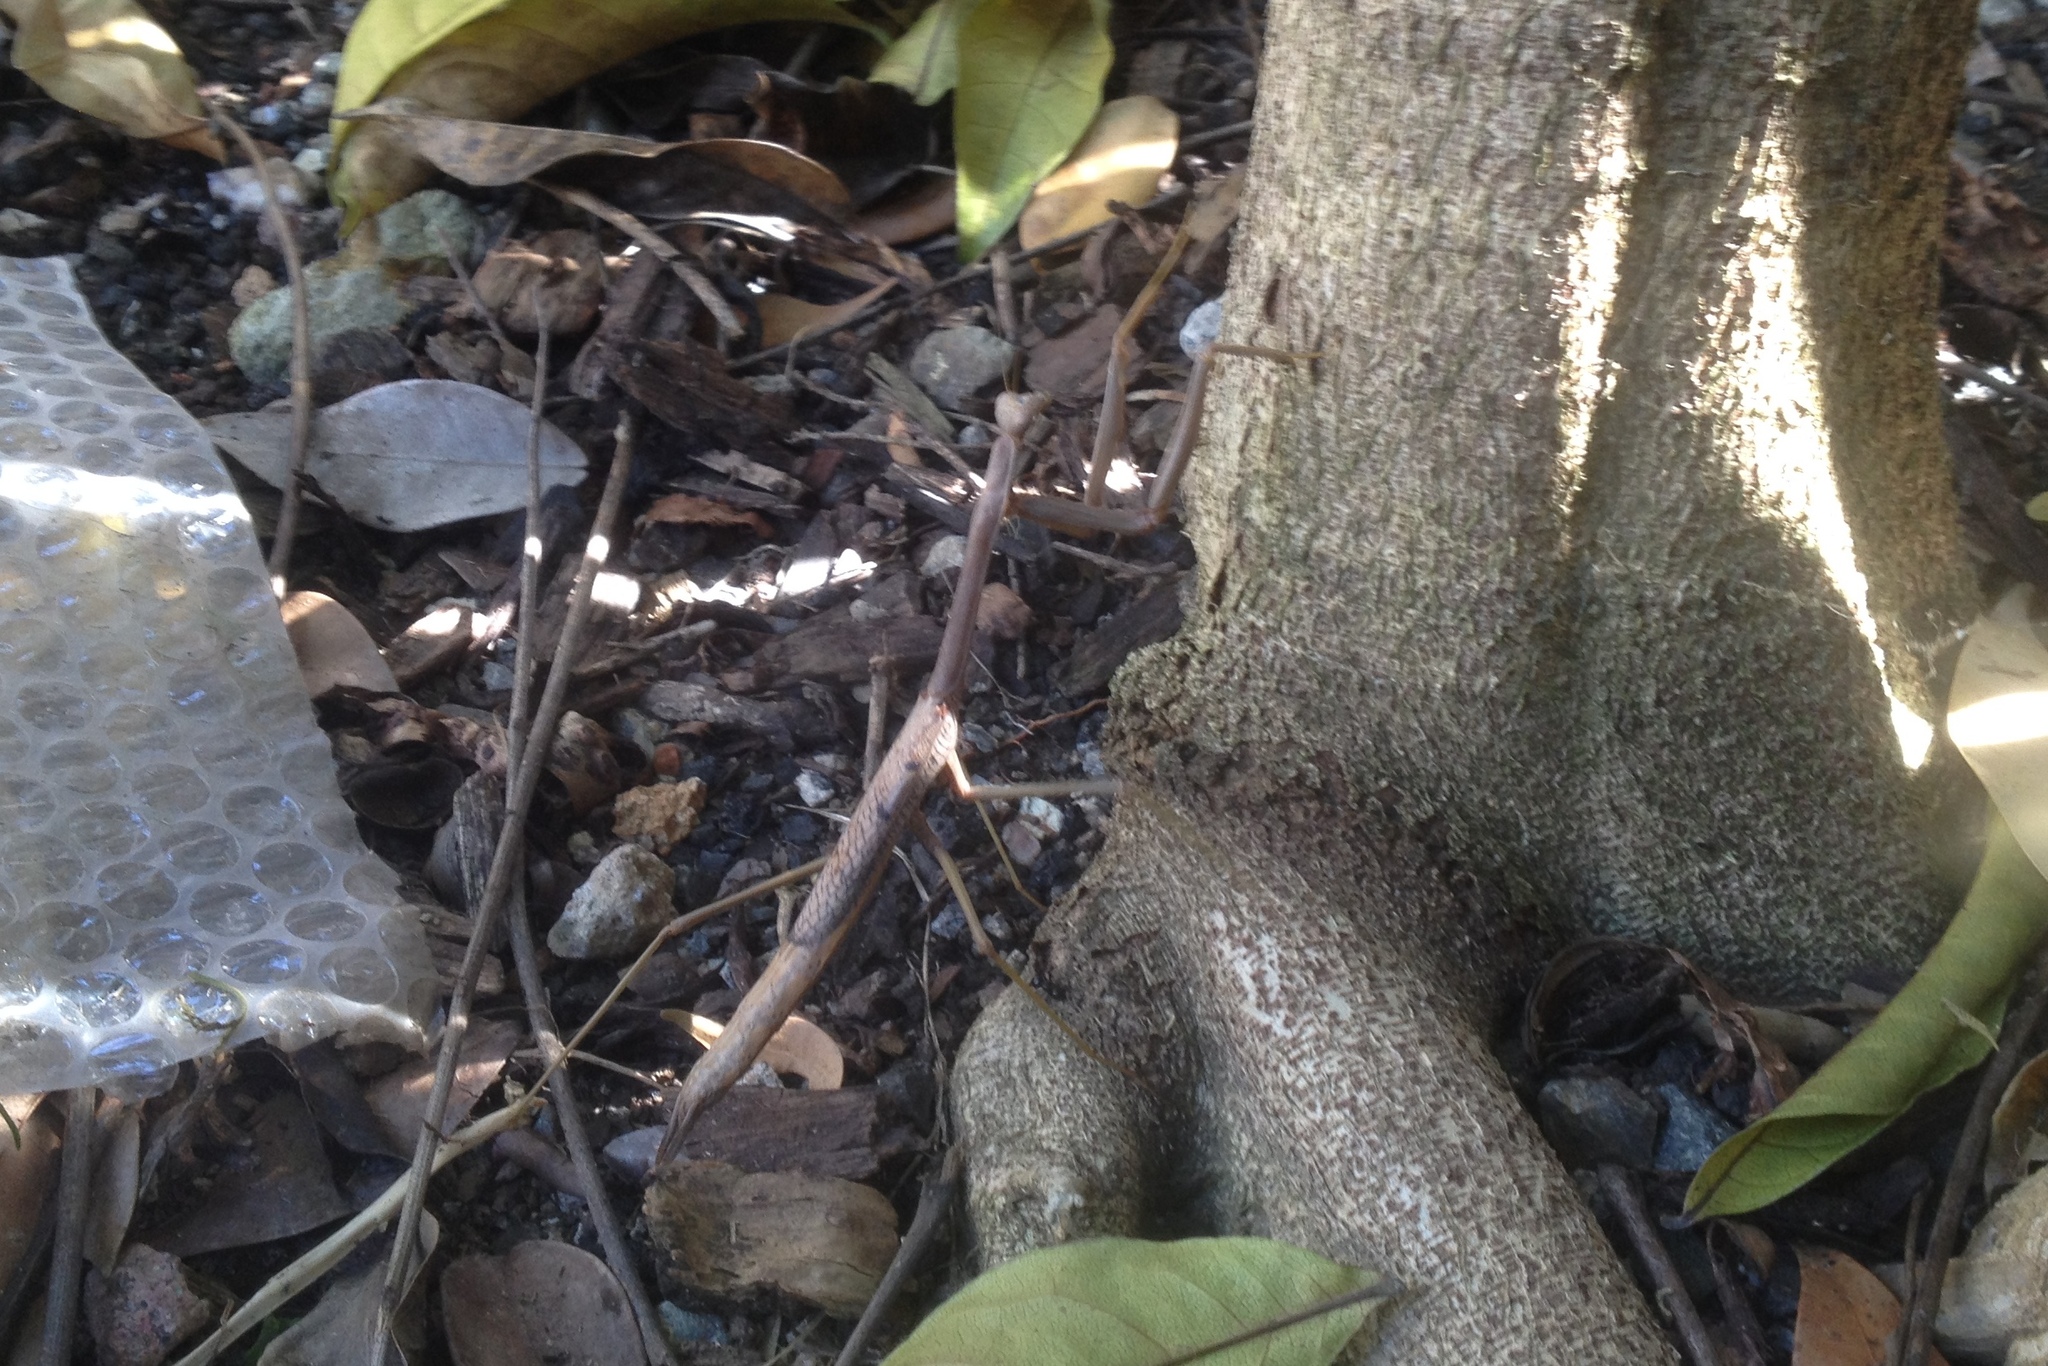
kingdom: Animalia
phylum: Arthropoda
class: Insecta
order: Mantodea
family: Mantidae
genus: Archimantis
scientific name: Archimantis latistyla
